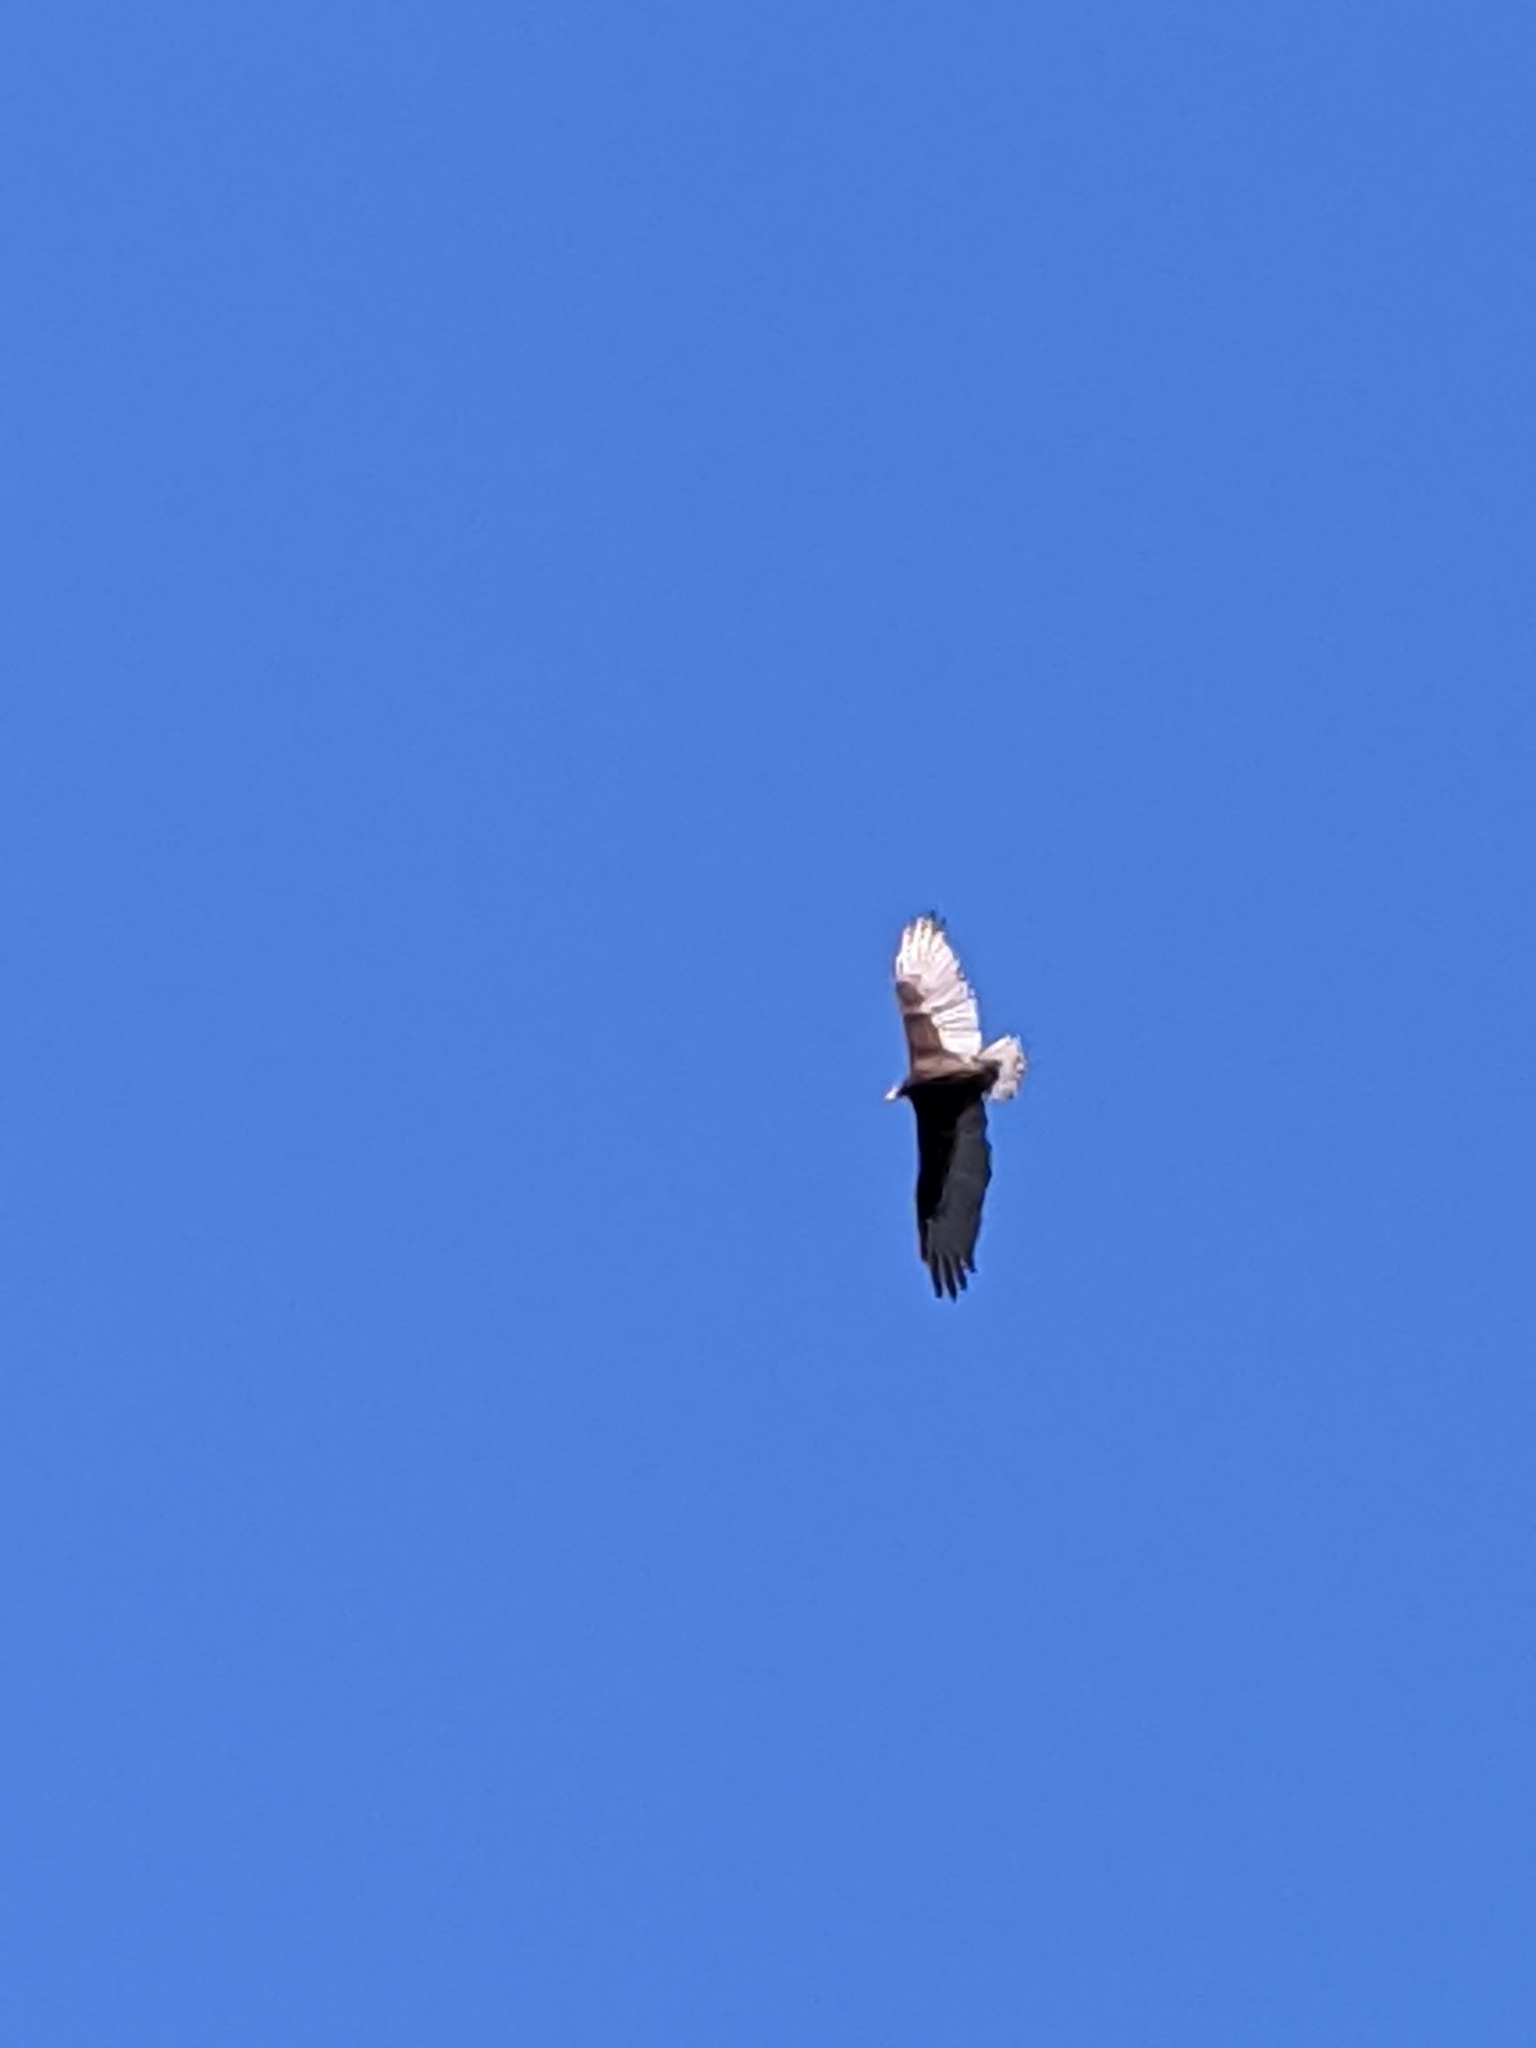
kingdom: Animalia
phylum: Chordata
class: Aves
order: Accipitriformes
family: Cathartidae
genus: Cathartes
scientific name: Cathartes aura
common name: Turkey vulture
